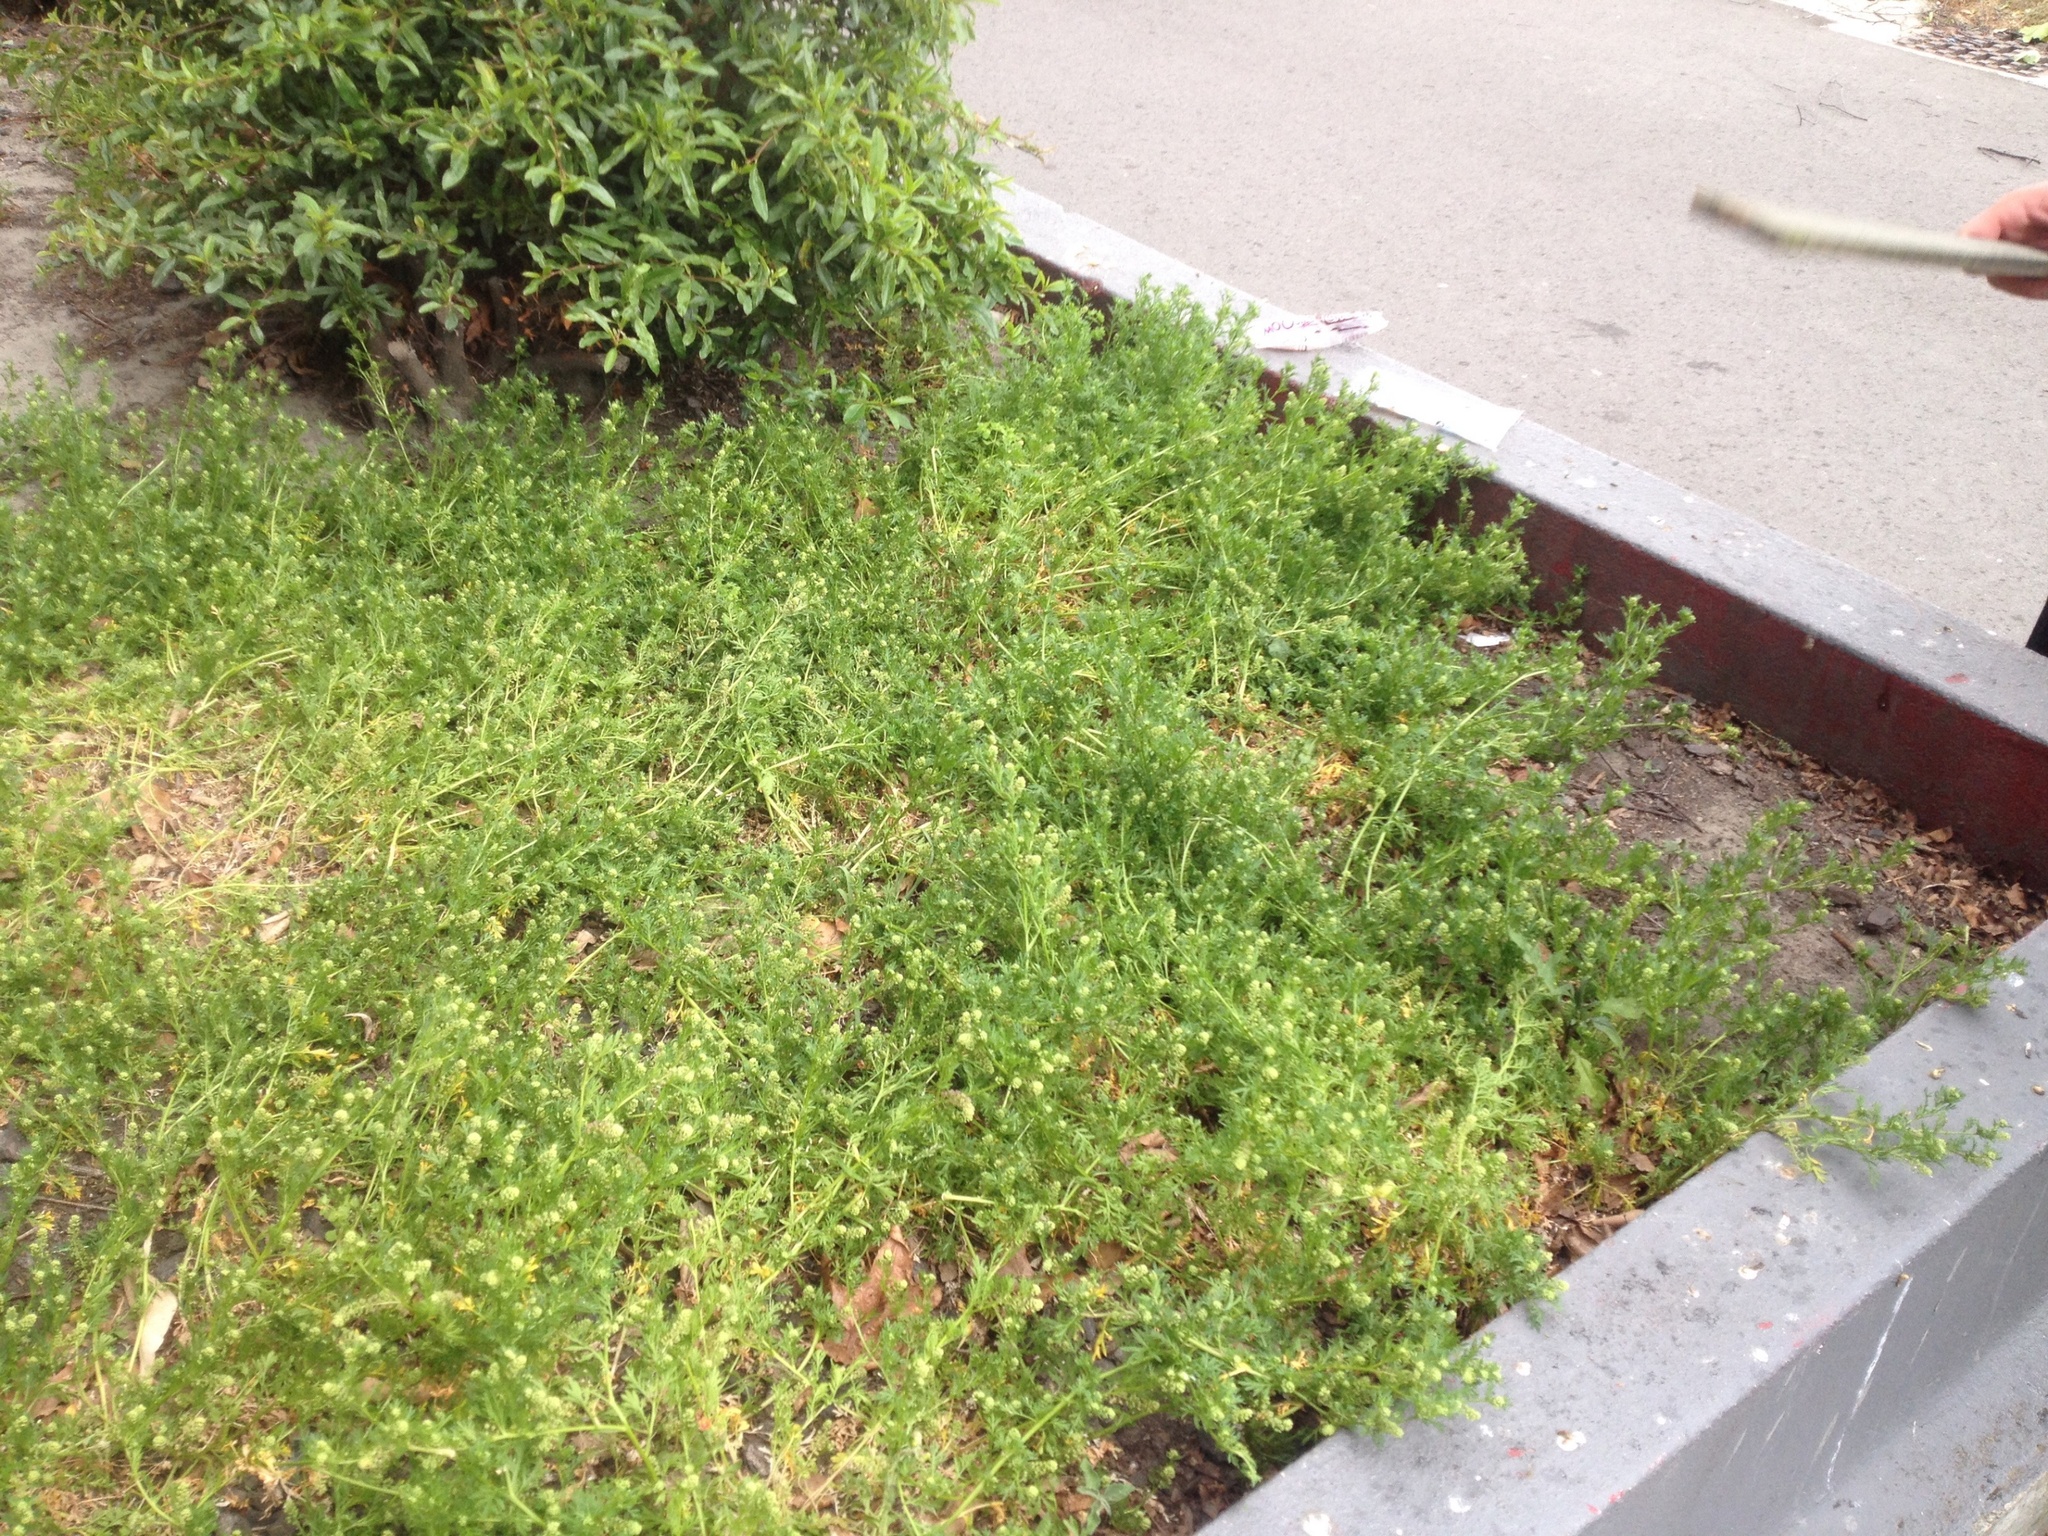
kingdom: Plantae
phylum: Tracheophyta
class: Magnoliopsida
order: Brassicales
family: Brassicaceae
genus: Lepidium
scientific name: Lepidium didymum
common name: Lesser swinecress
